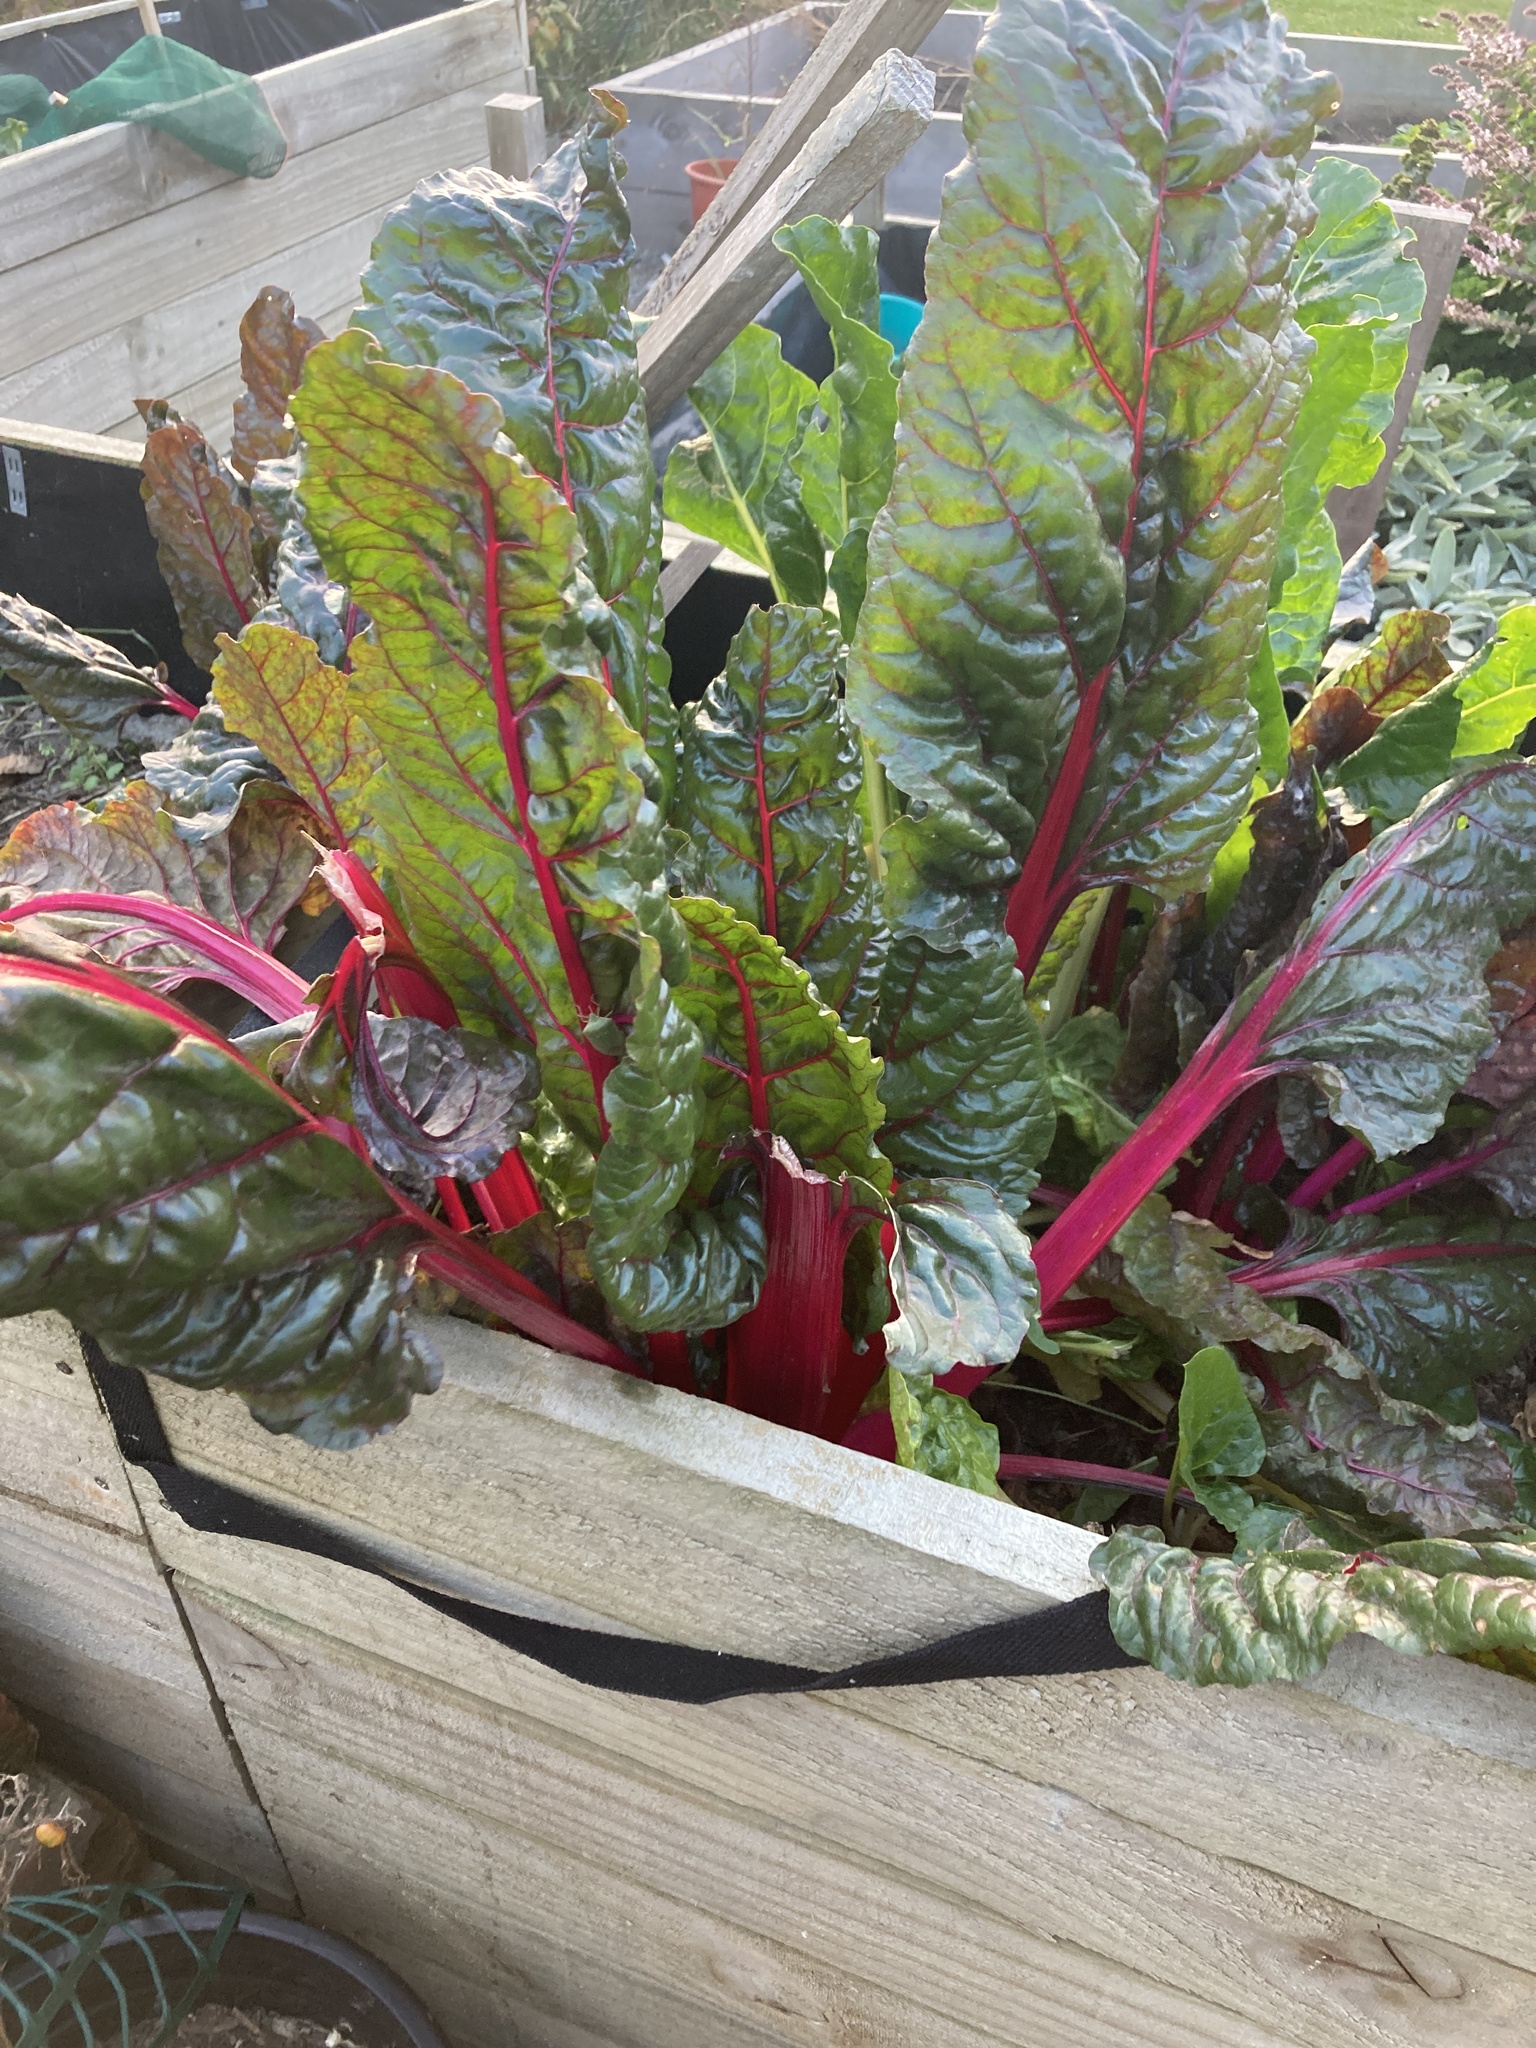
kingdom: Plantae
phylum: Tracheophyta
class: Magnoliopsida
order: Caryophyllales
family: Amaranthaceae
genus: Beta
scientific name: Beta vulgaris
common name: Beet
